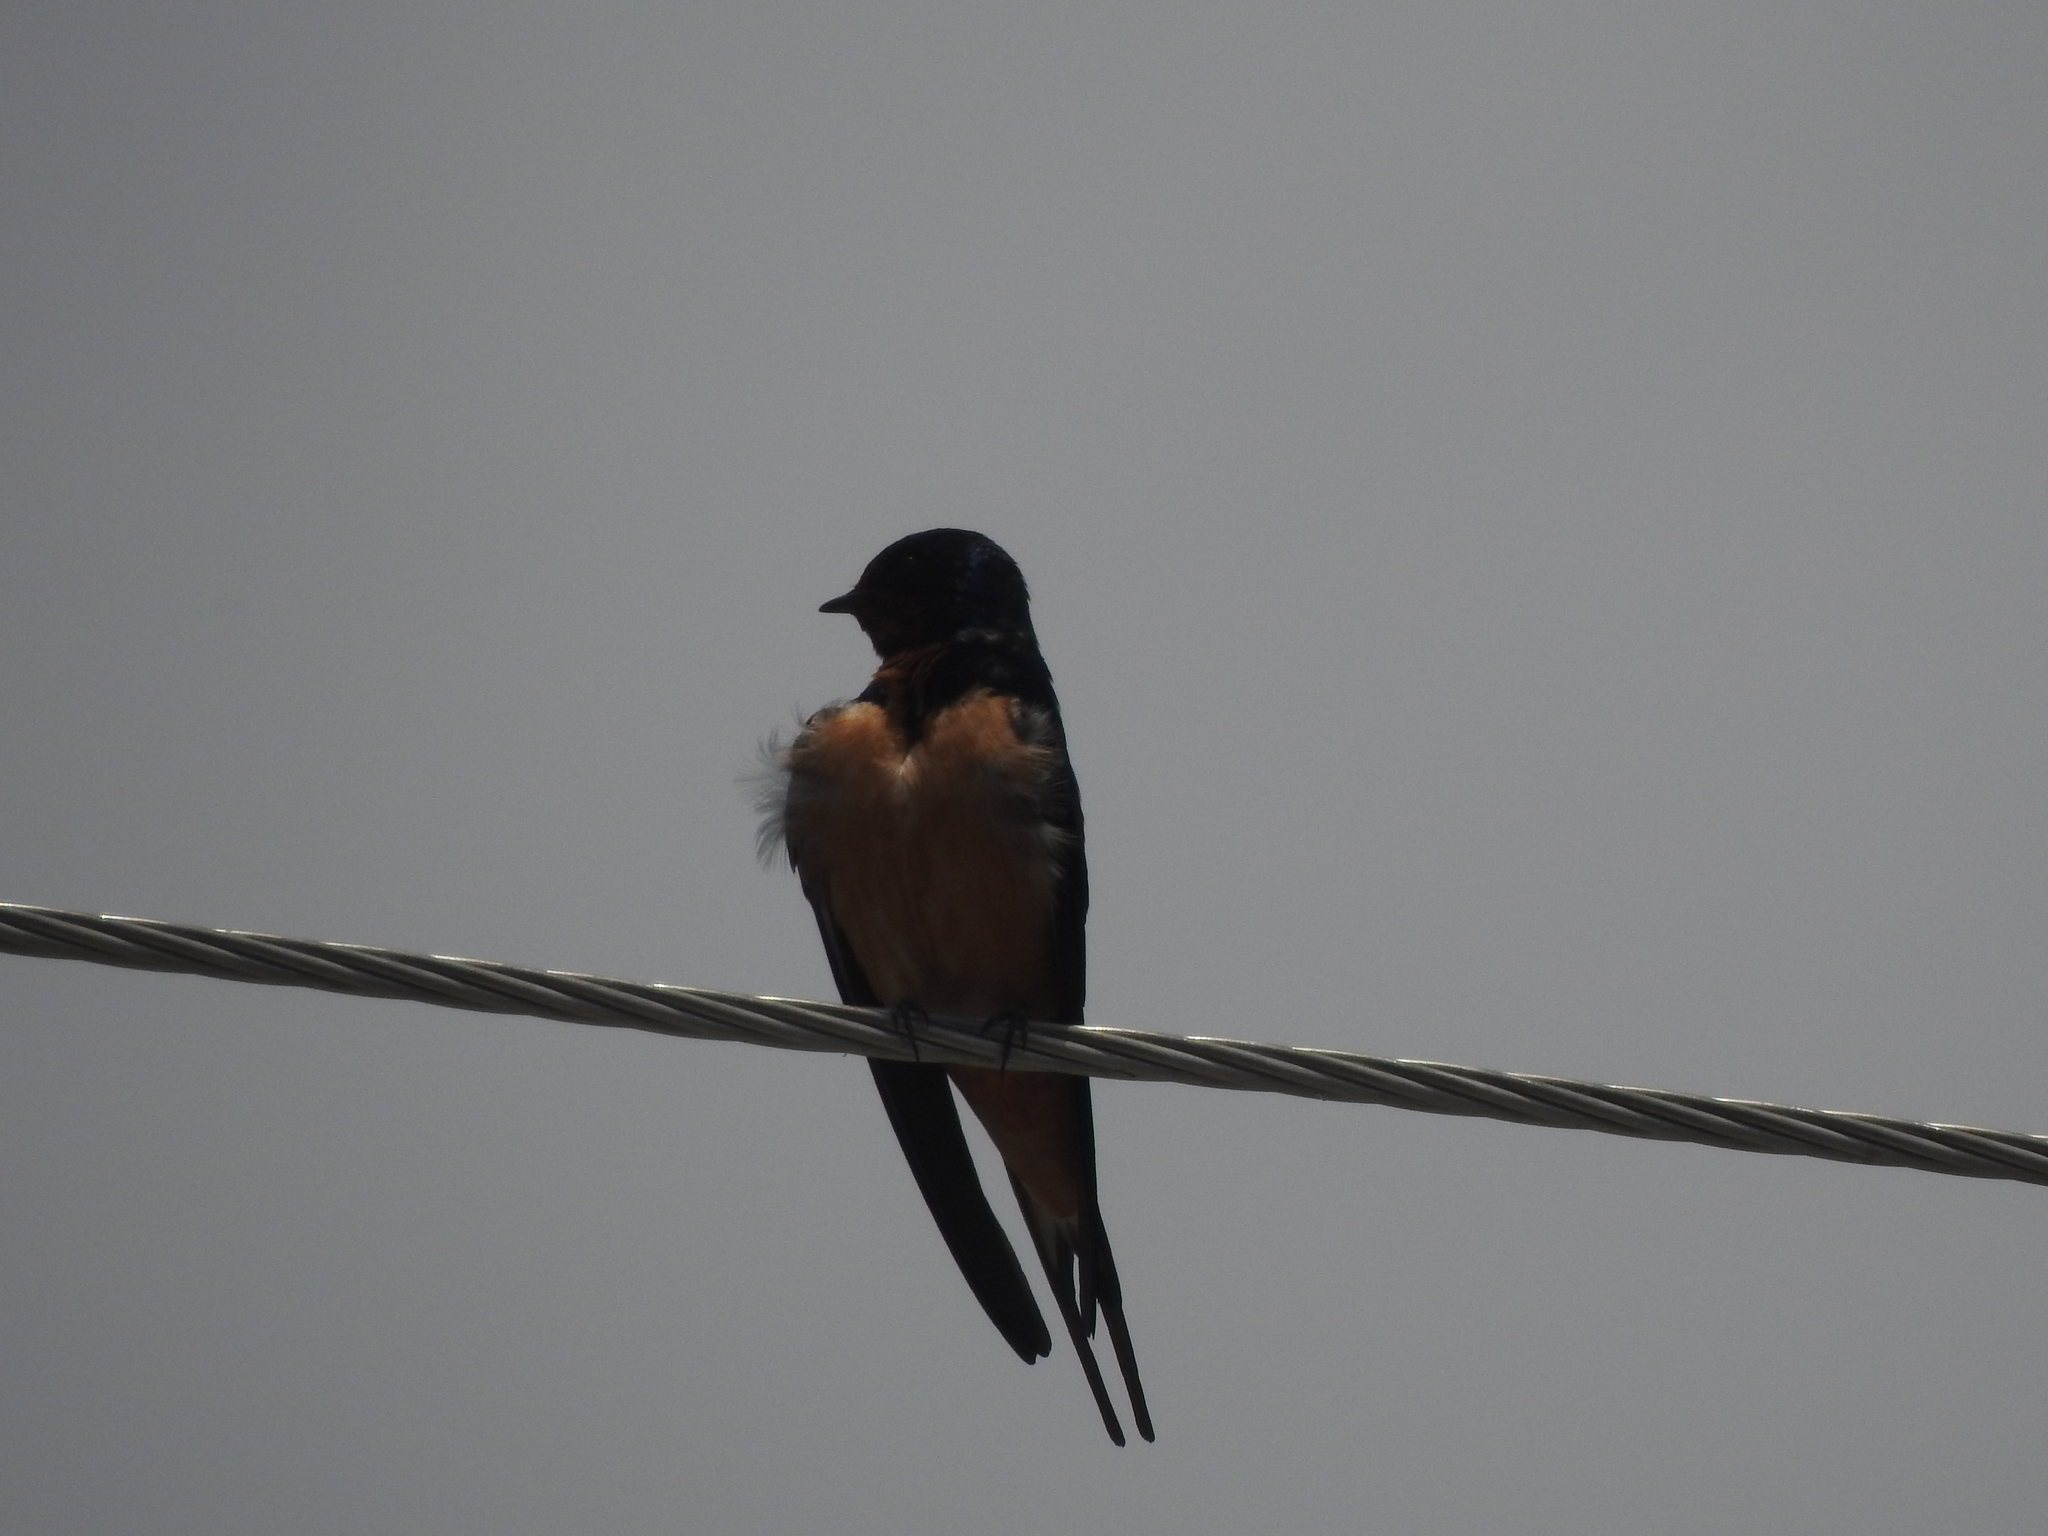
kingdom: Animalia
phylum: Chordata
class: Aves
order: Passeriformes
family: Hirundinidae
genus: Hirundo
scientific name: Hirundo rustica
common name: Barn swallow
